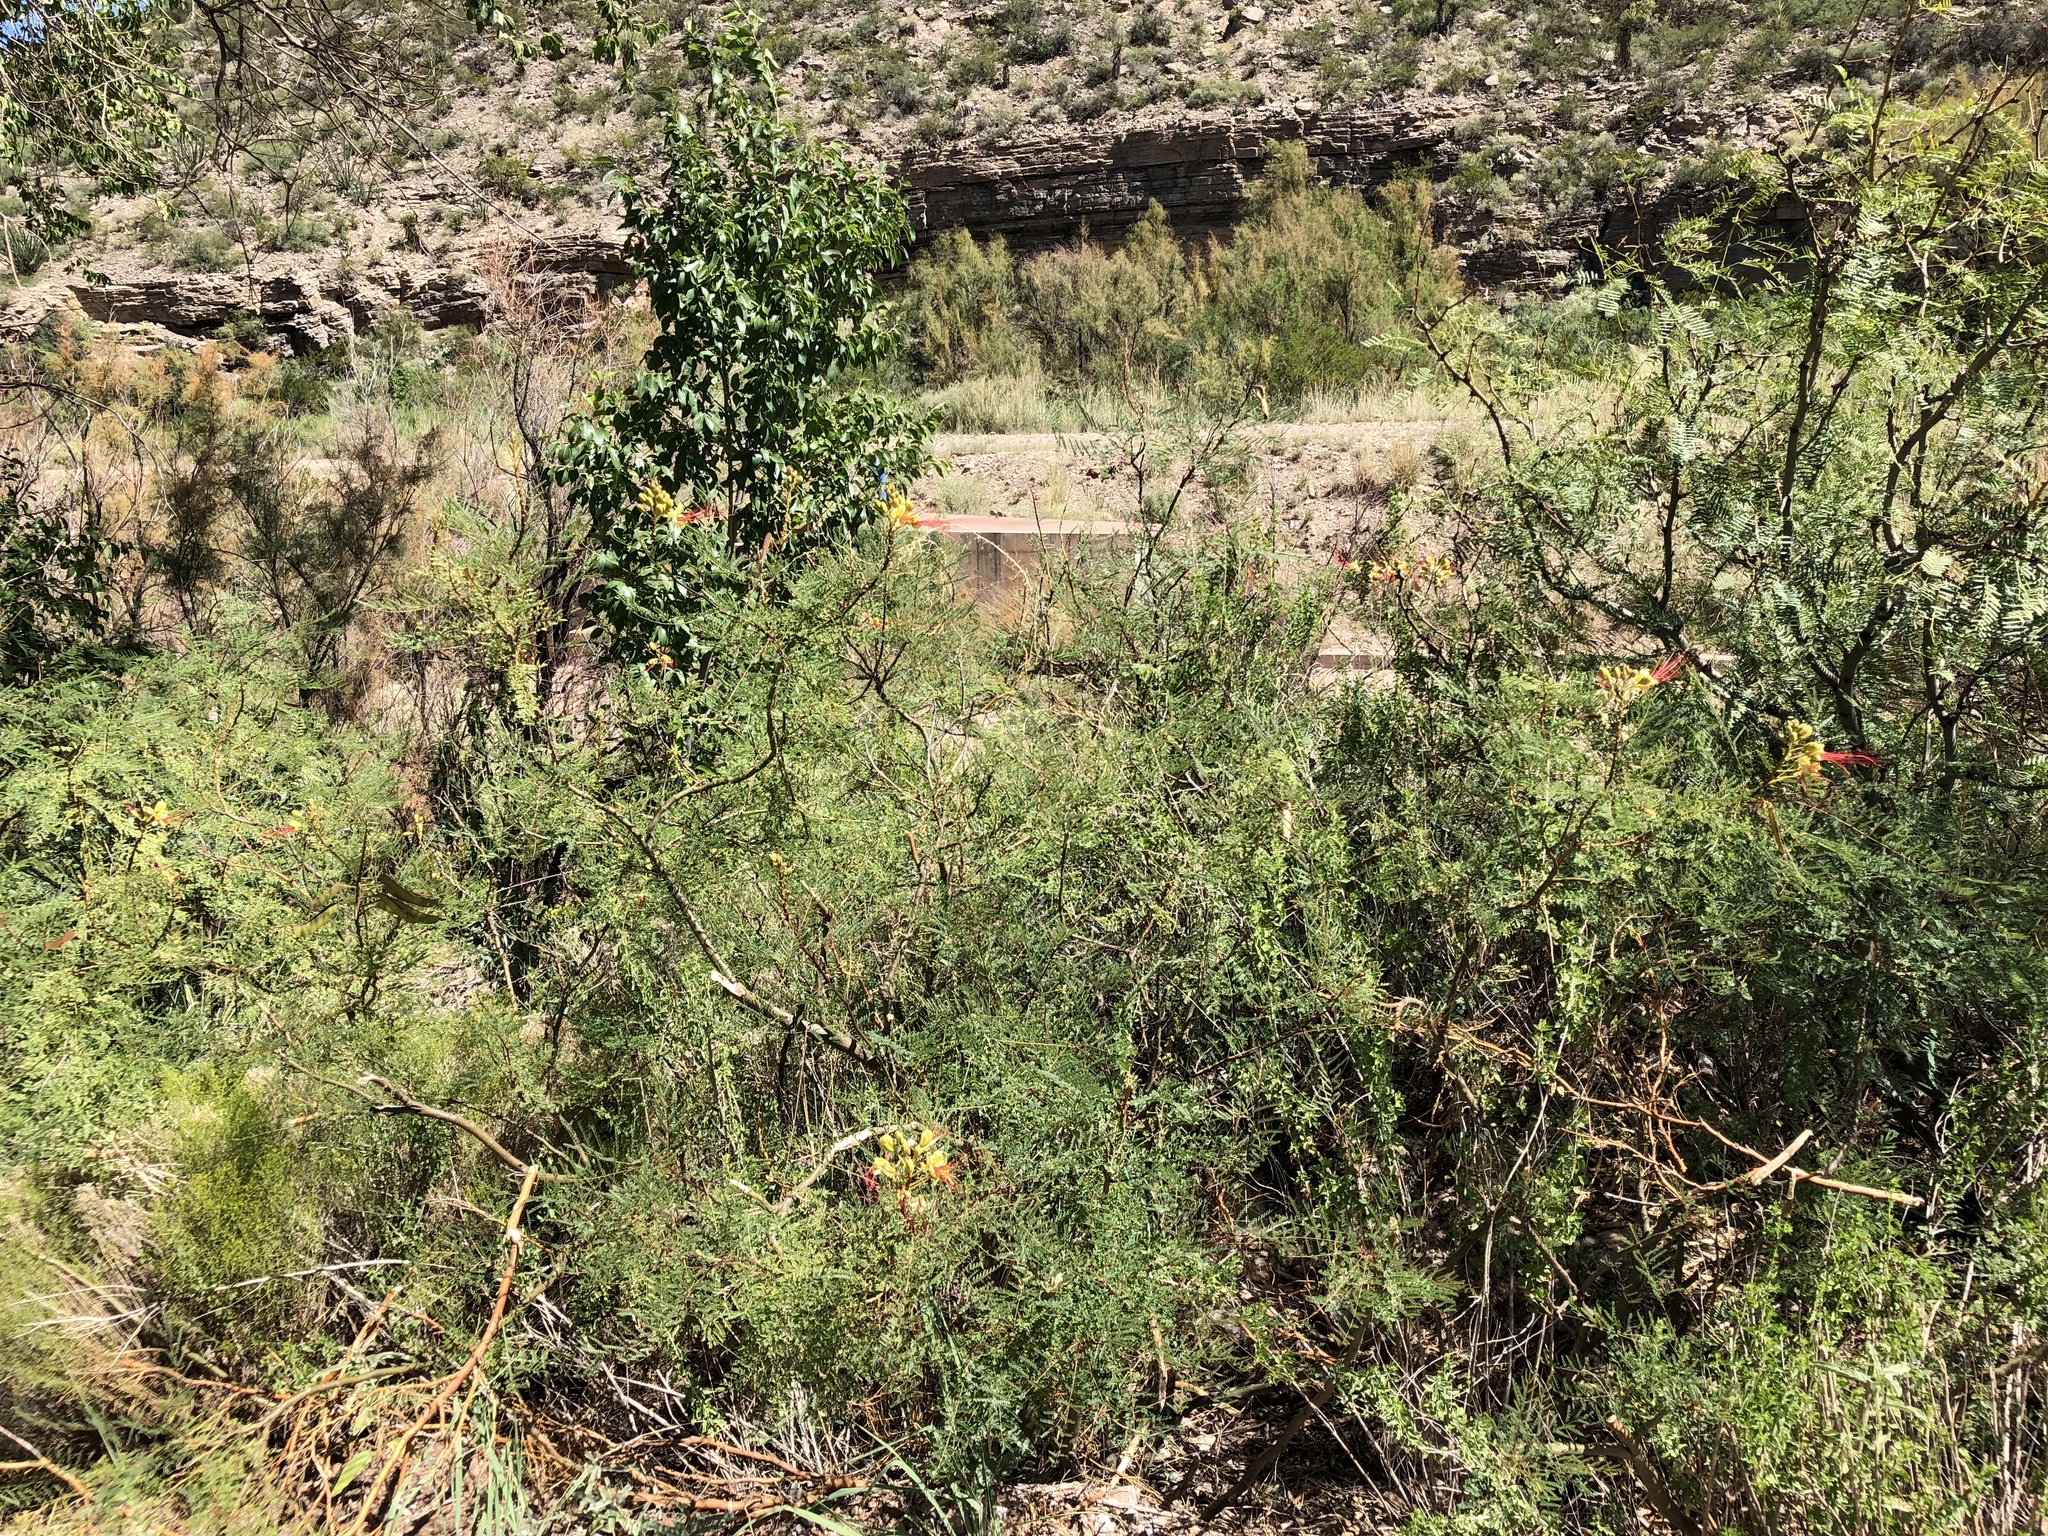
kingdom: Plantae
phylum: Tracheophyta
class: Magnoliopsida
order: Fabales
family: Fabaceae
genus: Erythrostemon
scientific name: Erythrostemon gilliesii
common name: Bird-of-paradise shrub
